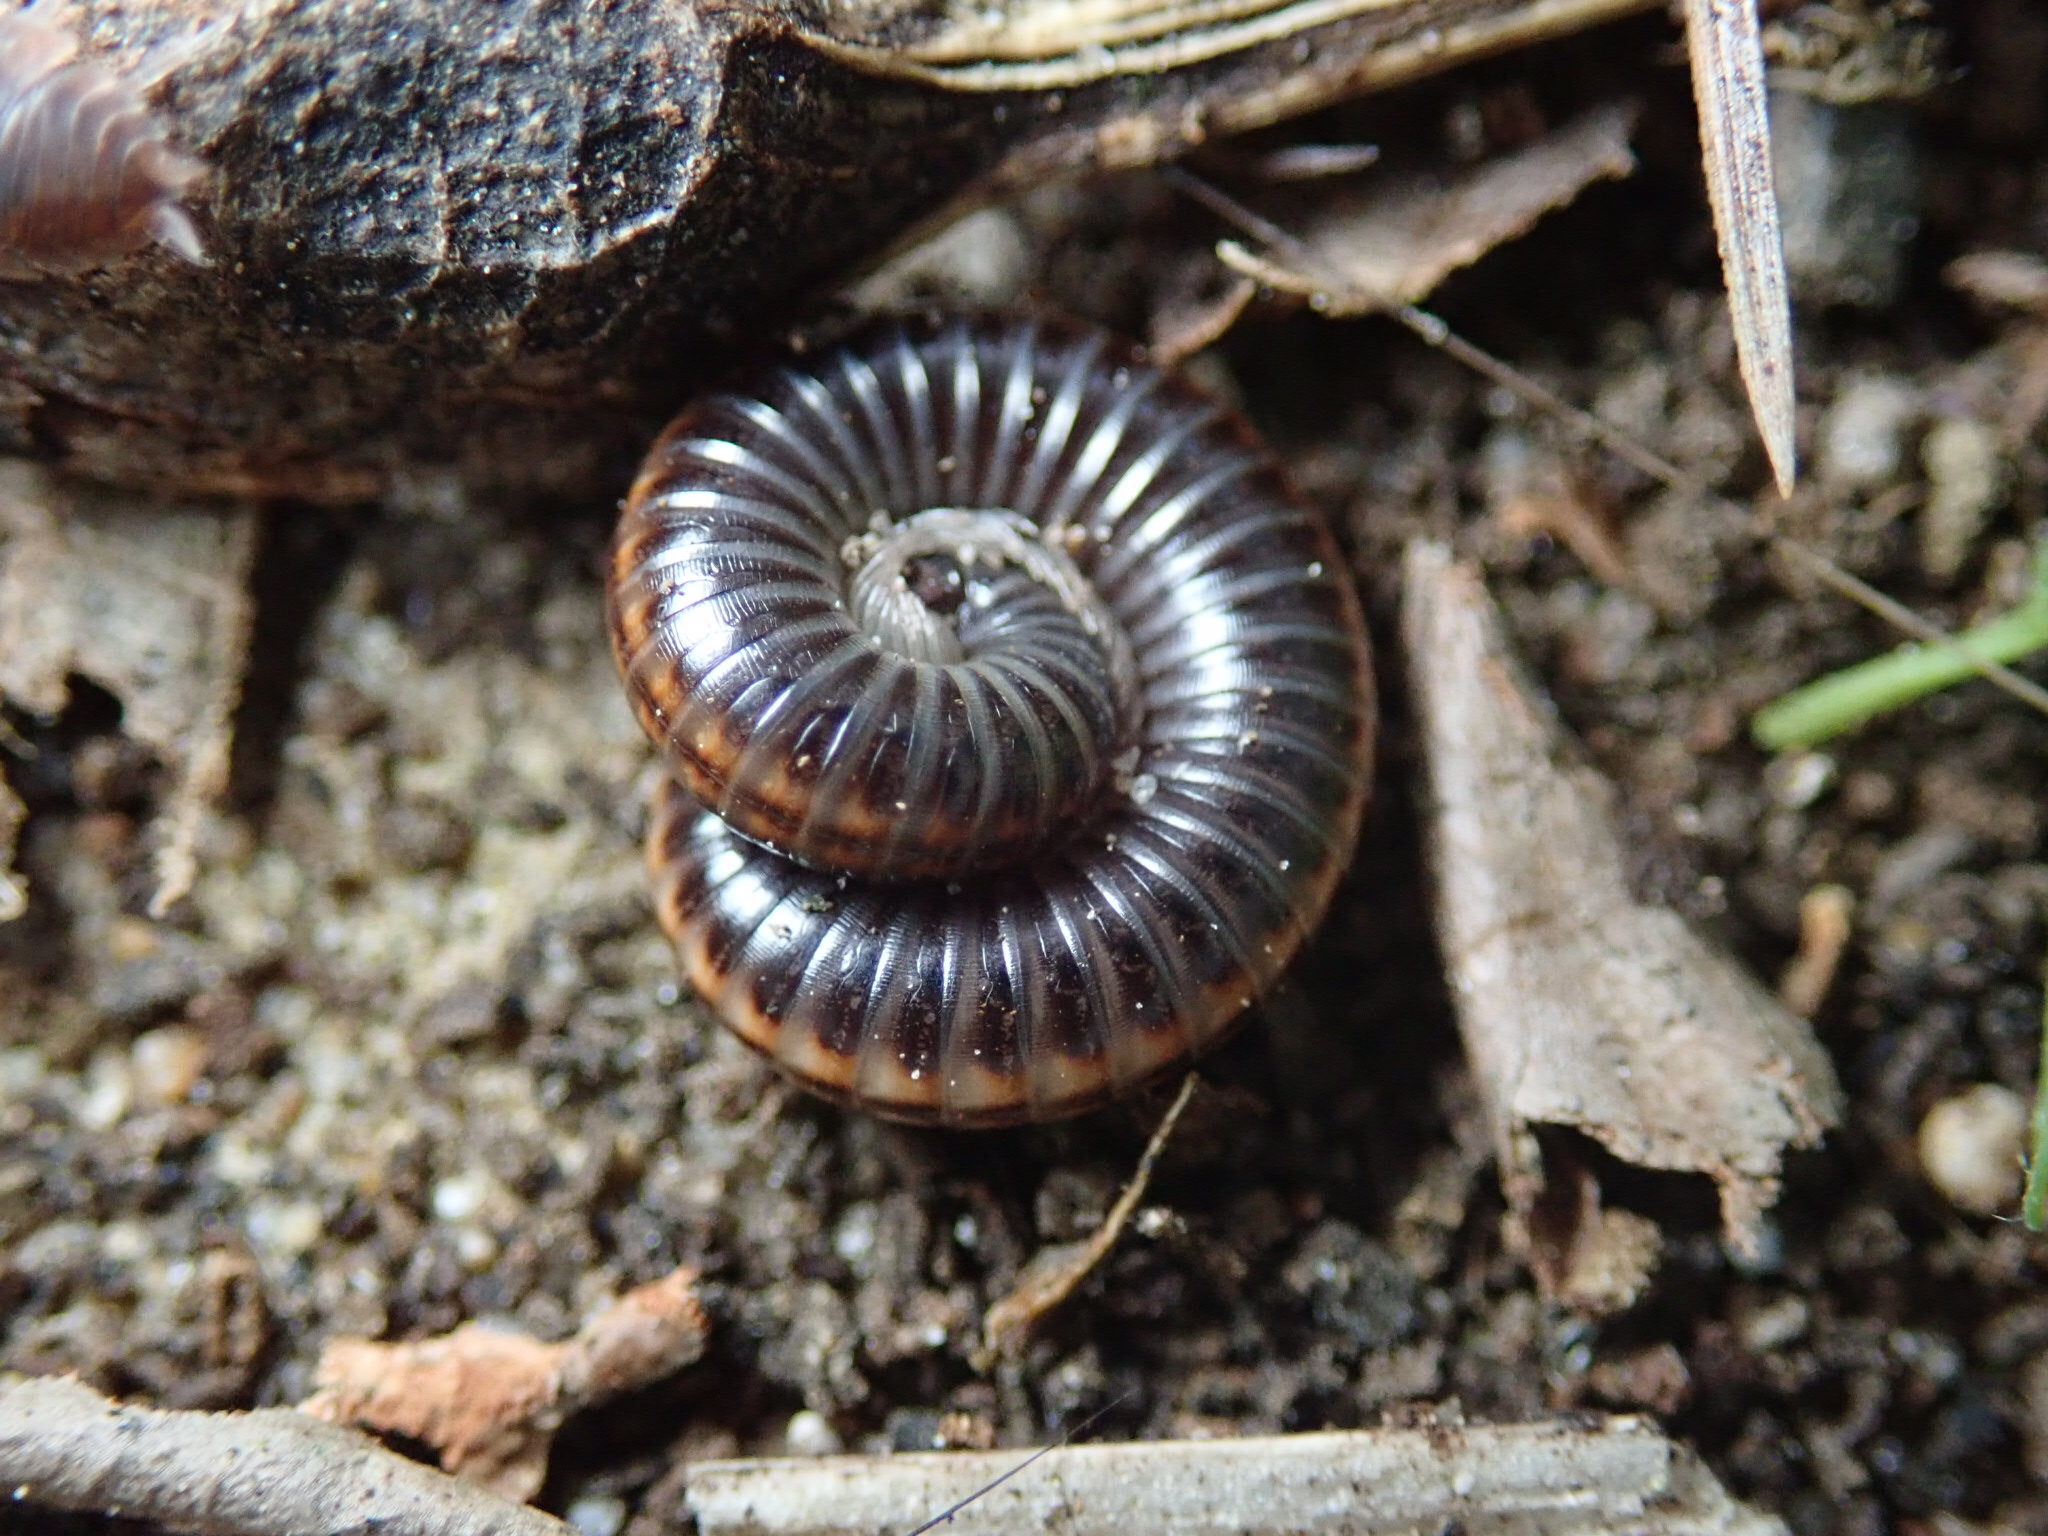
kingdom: Animalia
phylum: Arthropoda
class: Diplopoda
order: Julida
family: Julidae
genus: Ommatoiulus
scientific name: Ommatoiulus sabulosus
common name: Striped millipede
